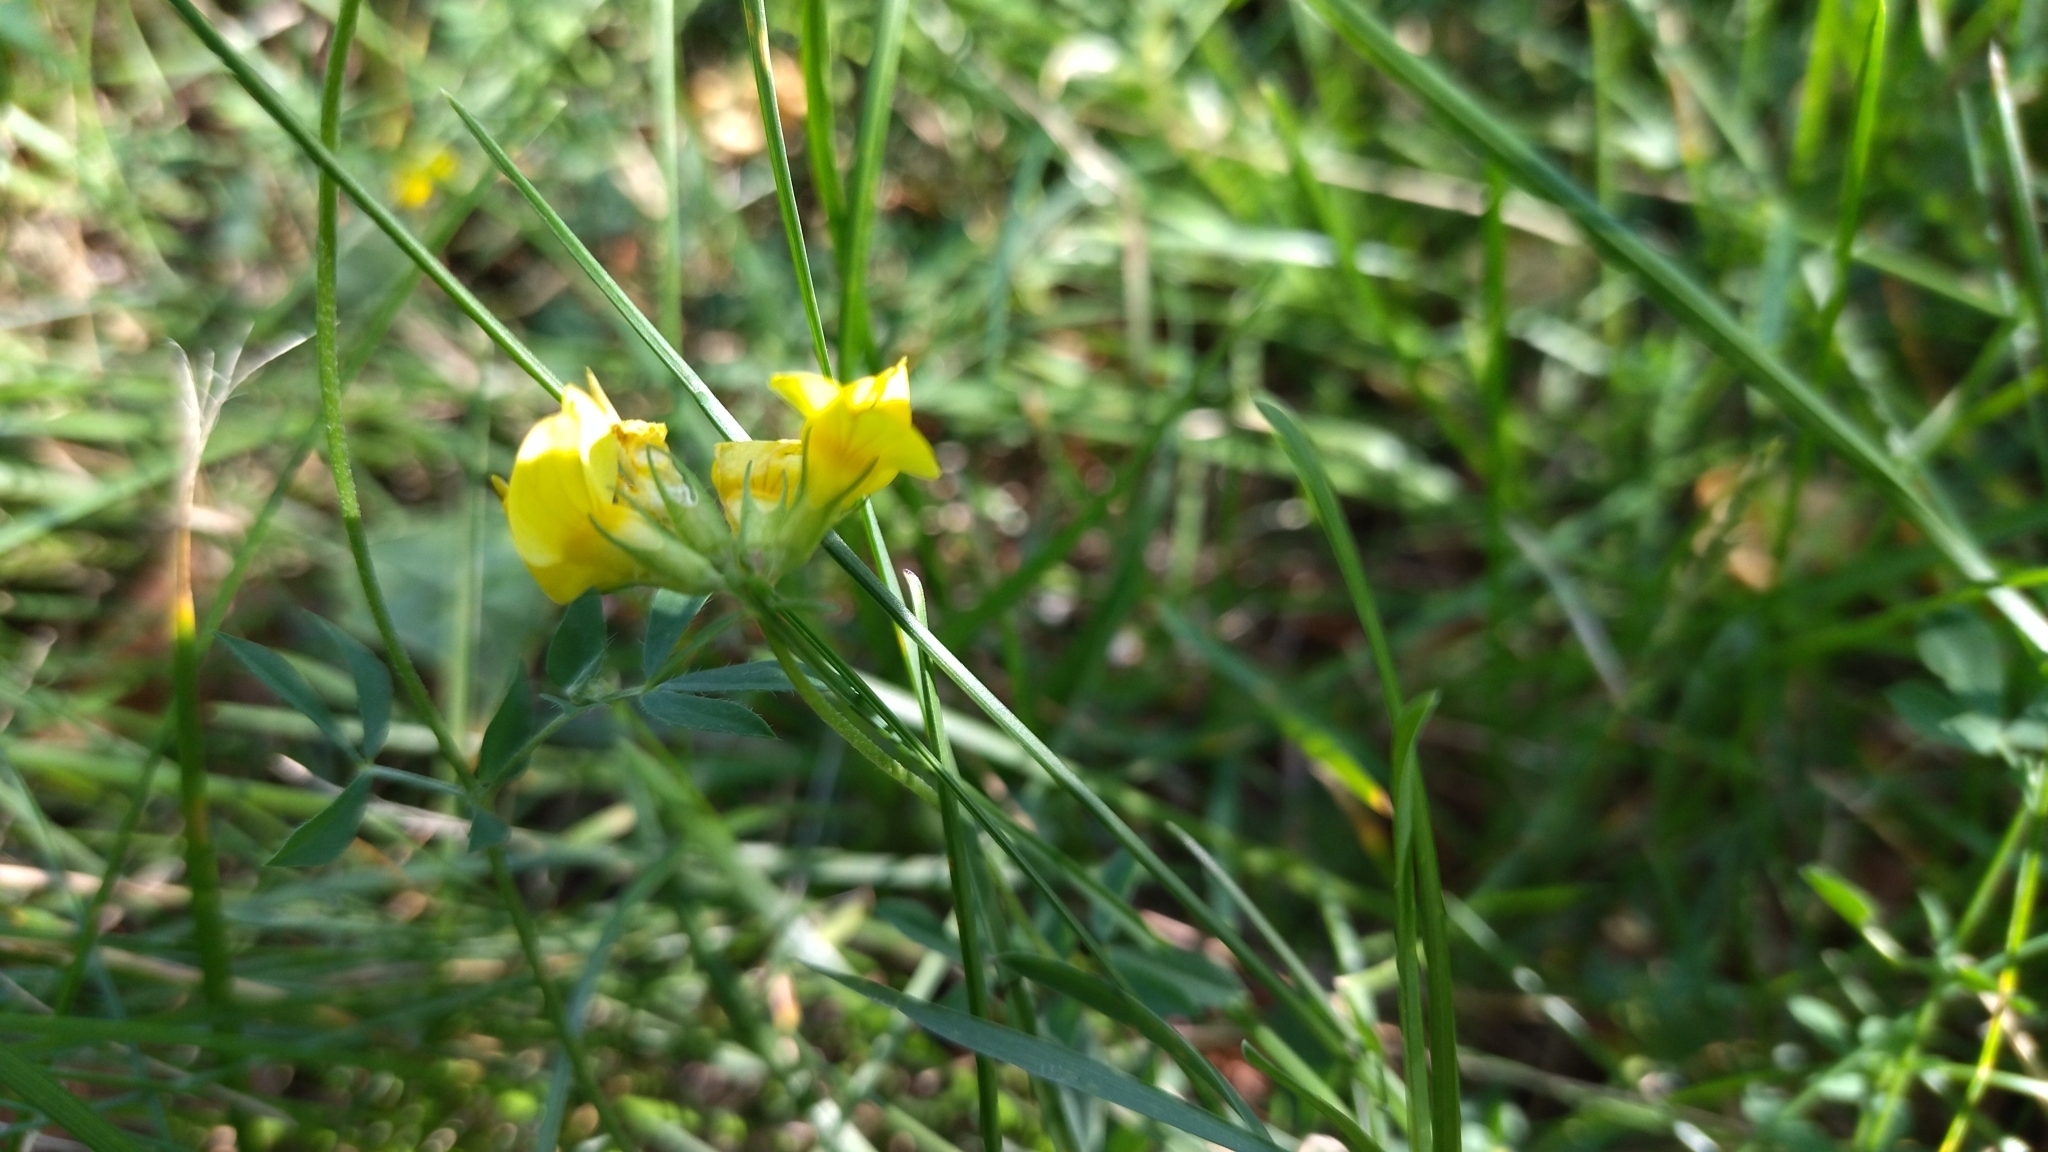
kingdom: Plantae
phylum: Tracheophyta
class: Magnoliopsida
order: Fabales
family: Fabaceae
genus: Lotus
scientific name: Lotus corniculatus
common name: Common bird's-foot-trefoil
